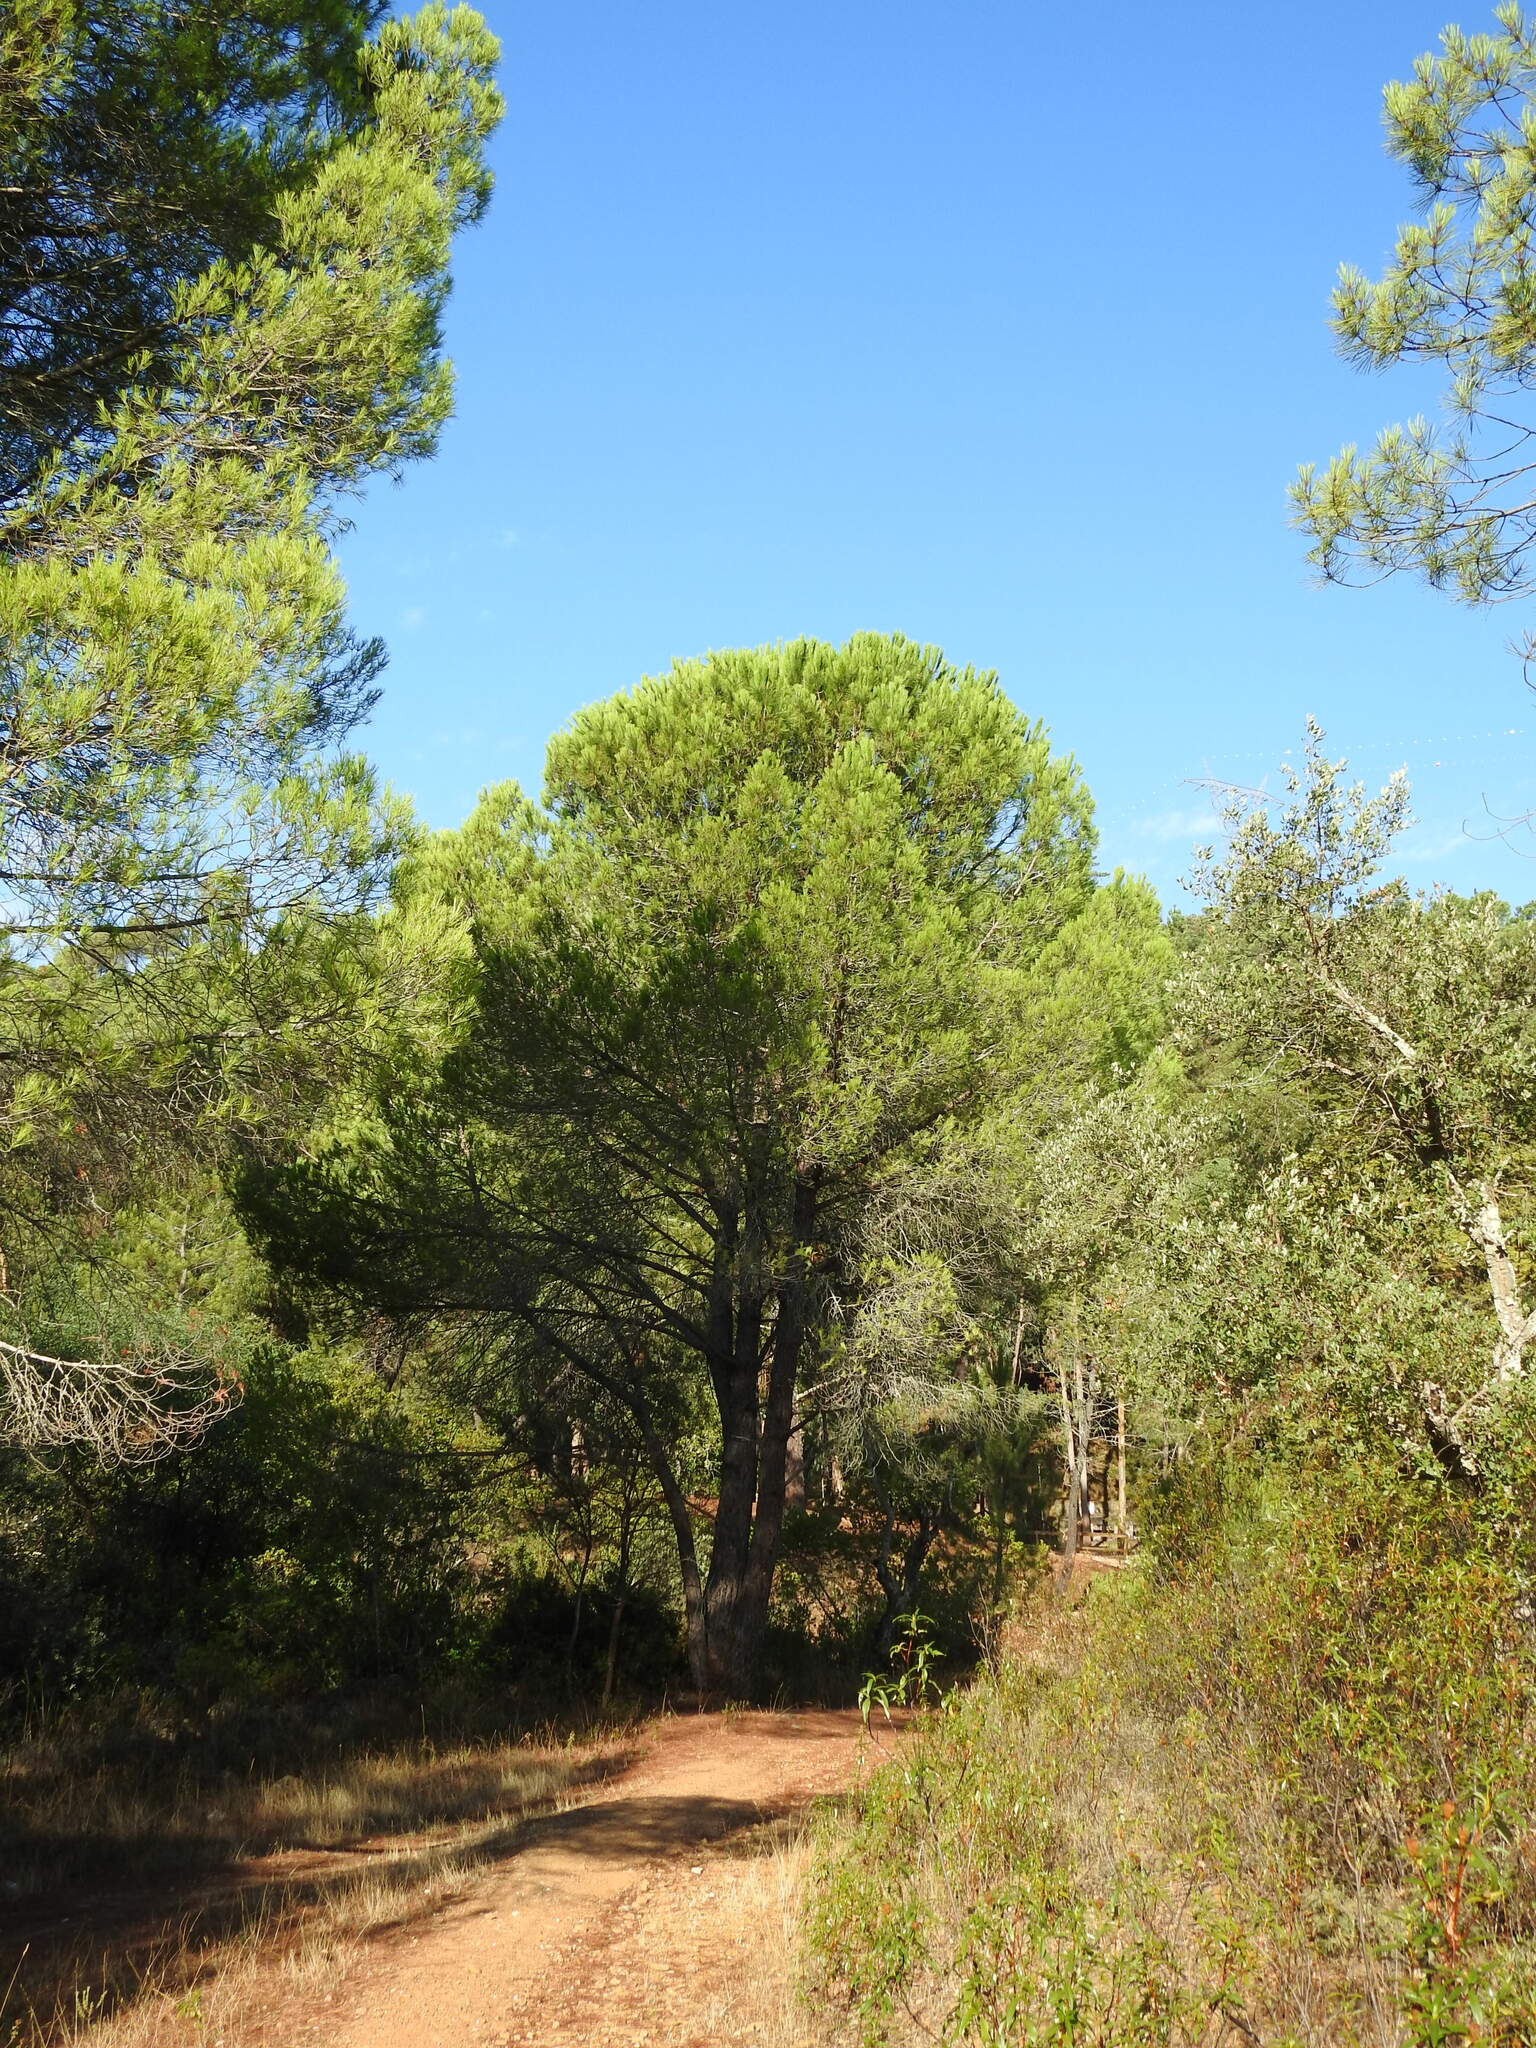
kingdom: Plantae
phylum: Tracheophyta
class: Pinopsida
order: Pinales
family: Pinaceae
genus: Pinus
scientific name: Pinus pinea
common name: Italian stone pine
